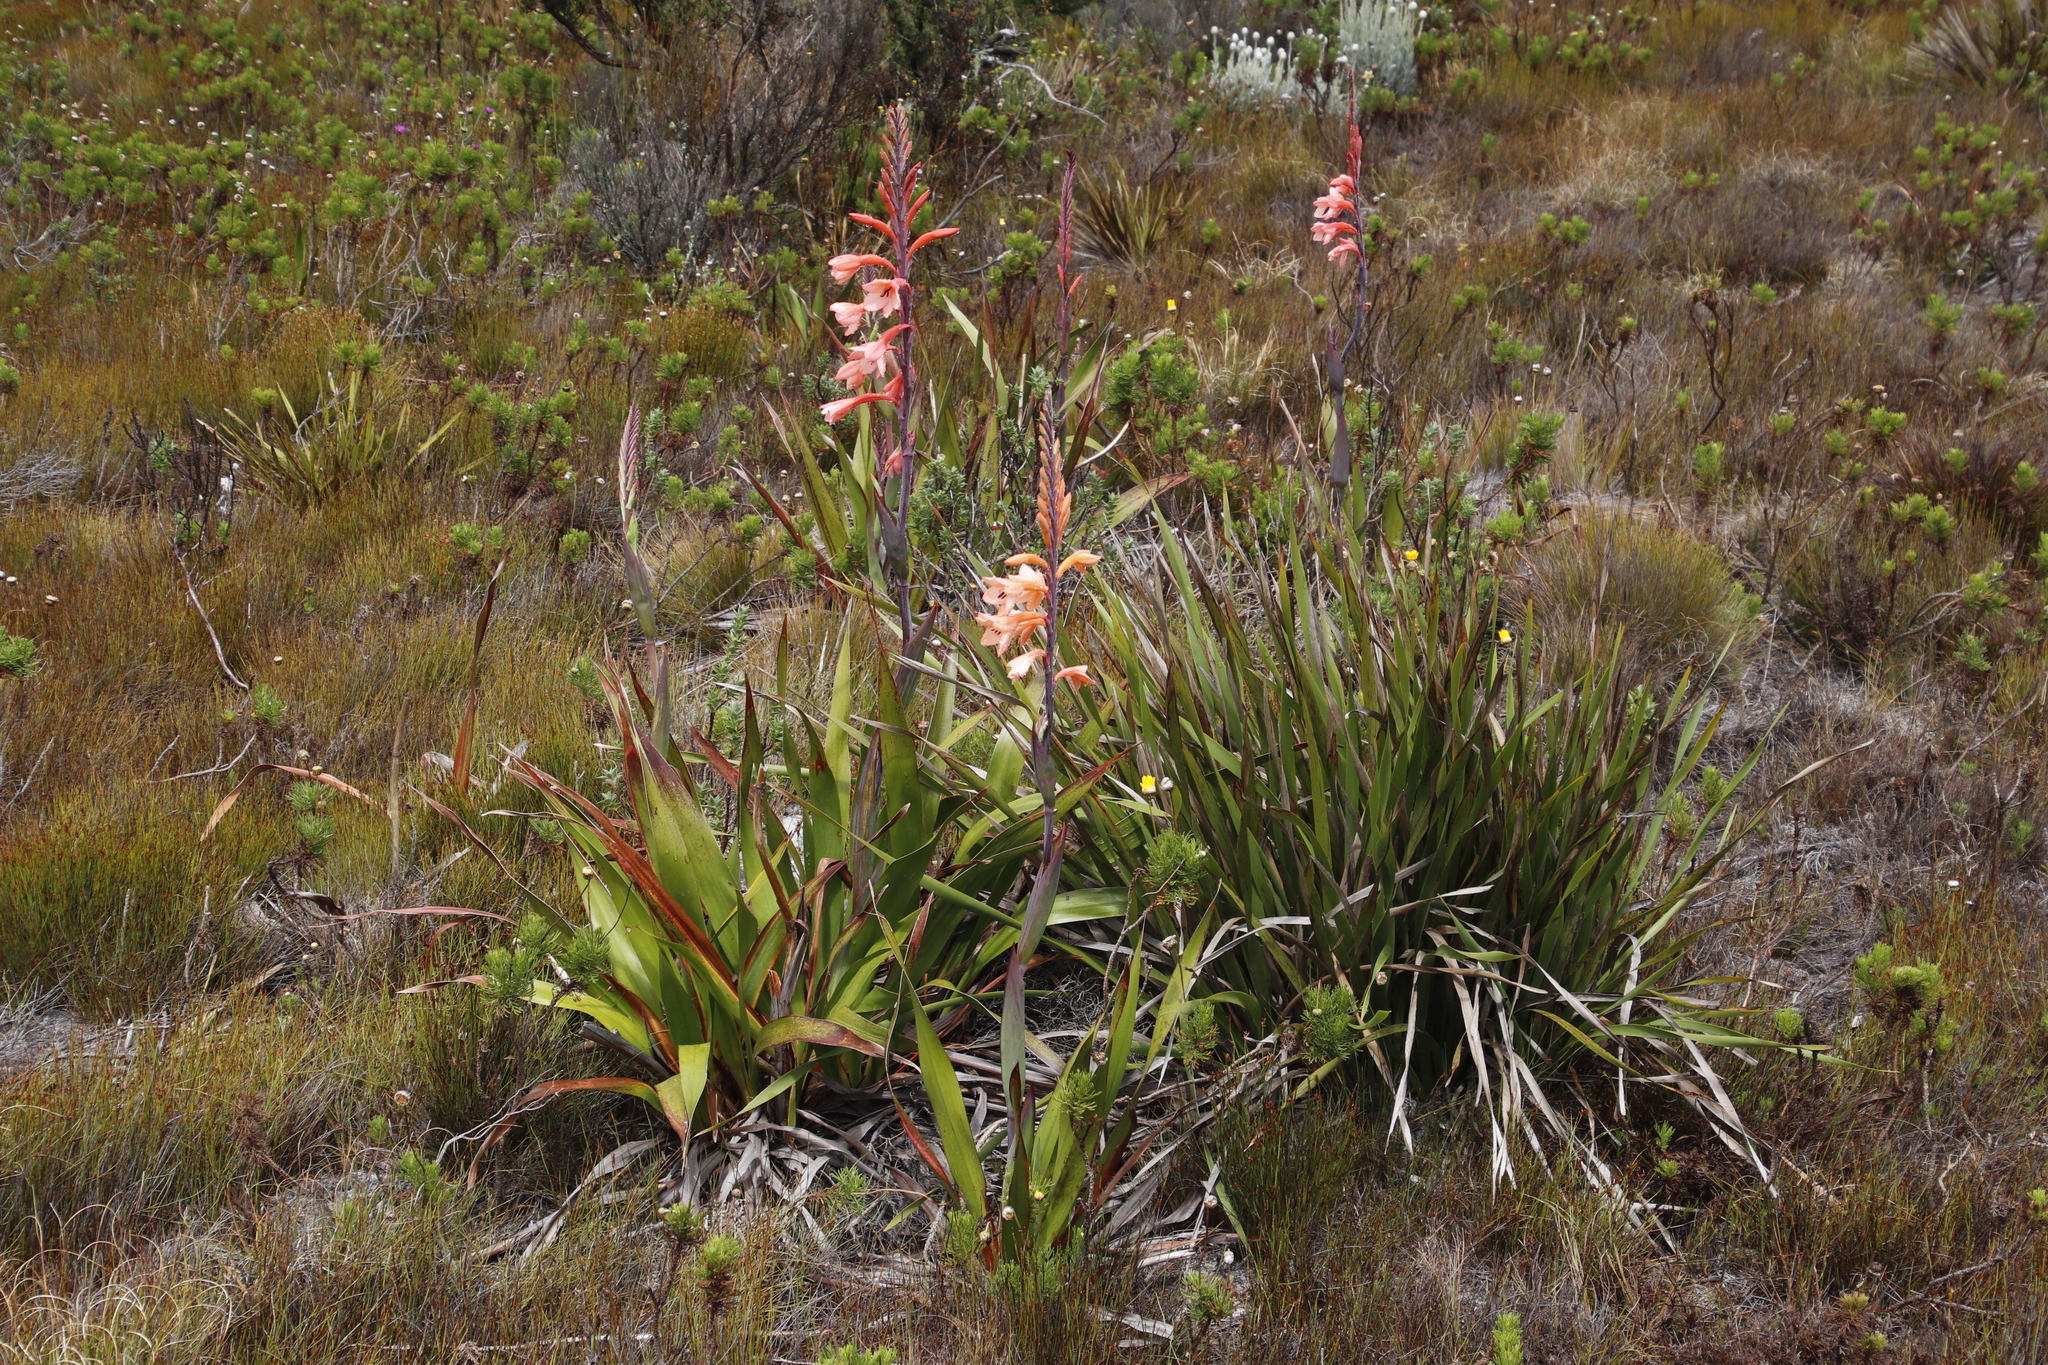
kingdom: Plantae
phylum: Tracheophyta
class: Liliopsida
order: Asparagales
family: Iridaceae
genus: Watsonia
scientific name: Watsonia tabularis
